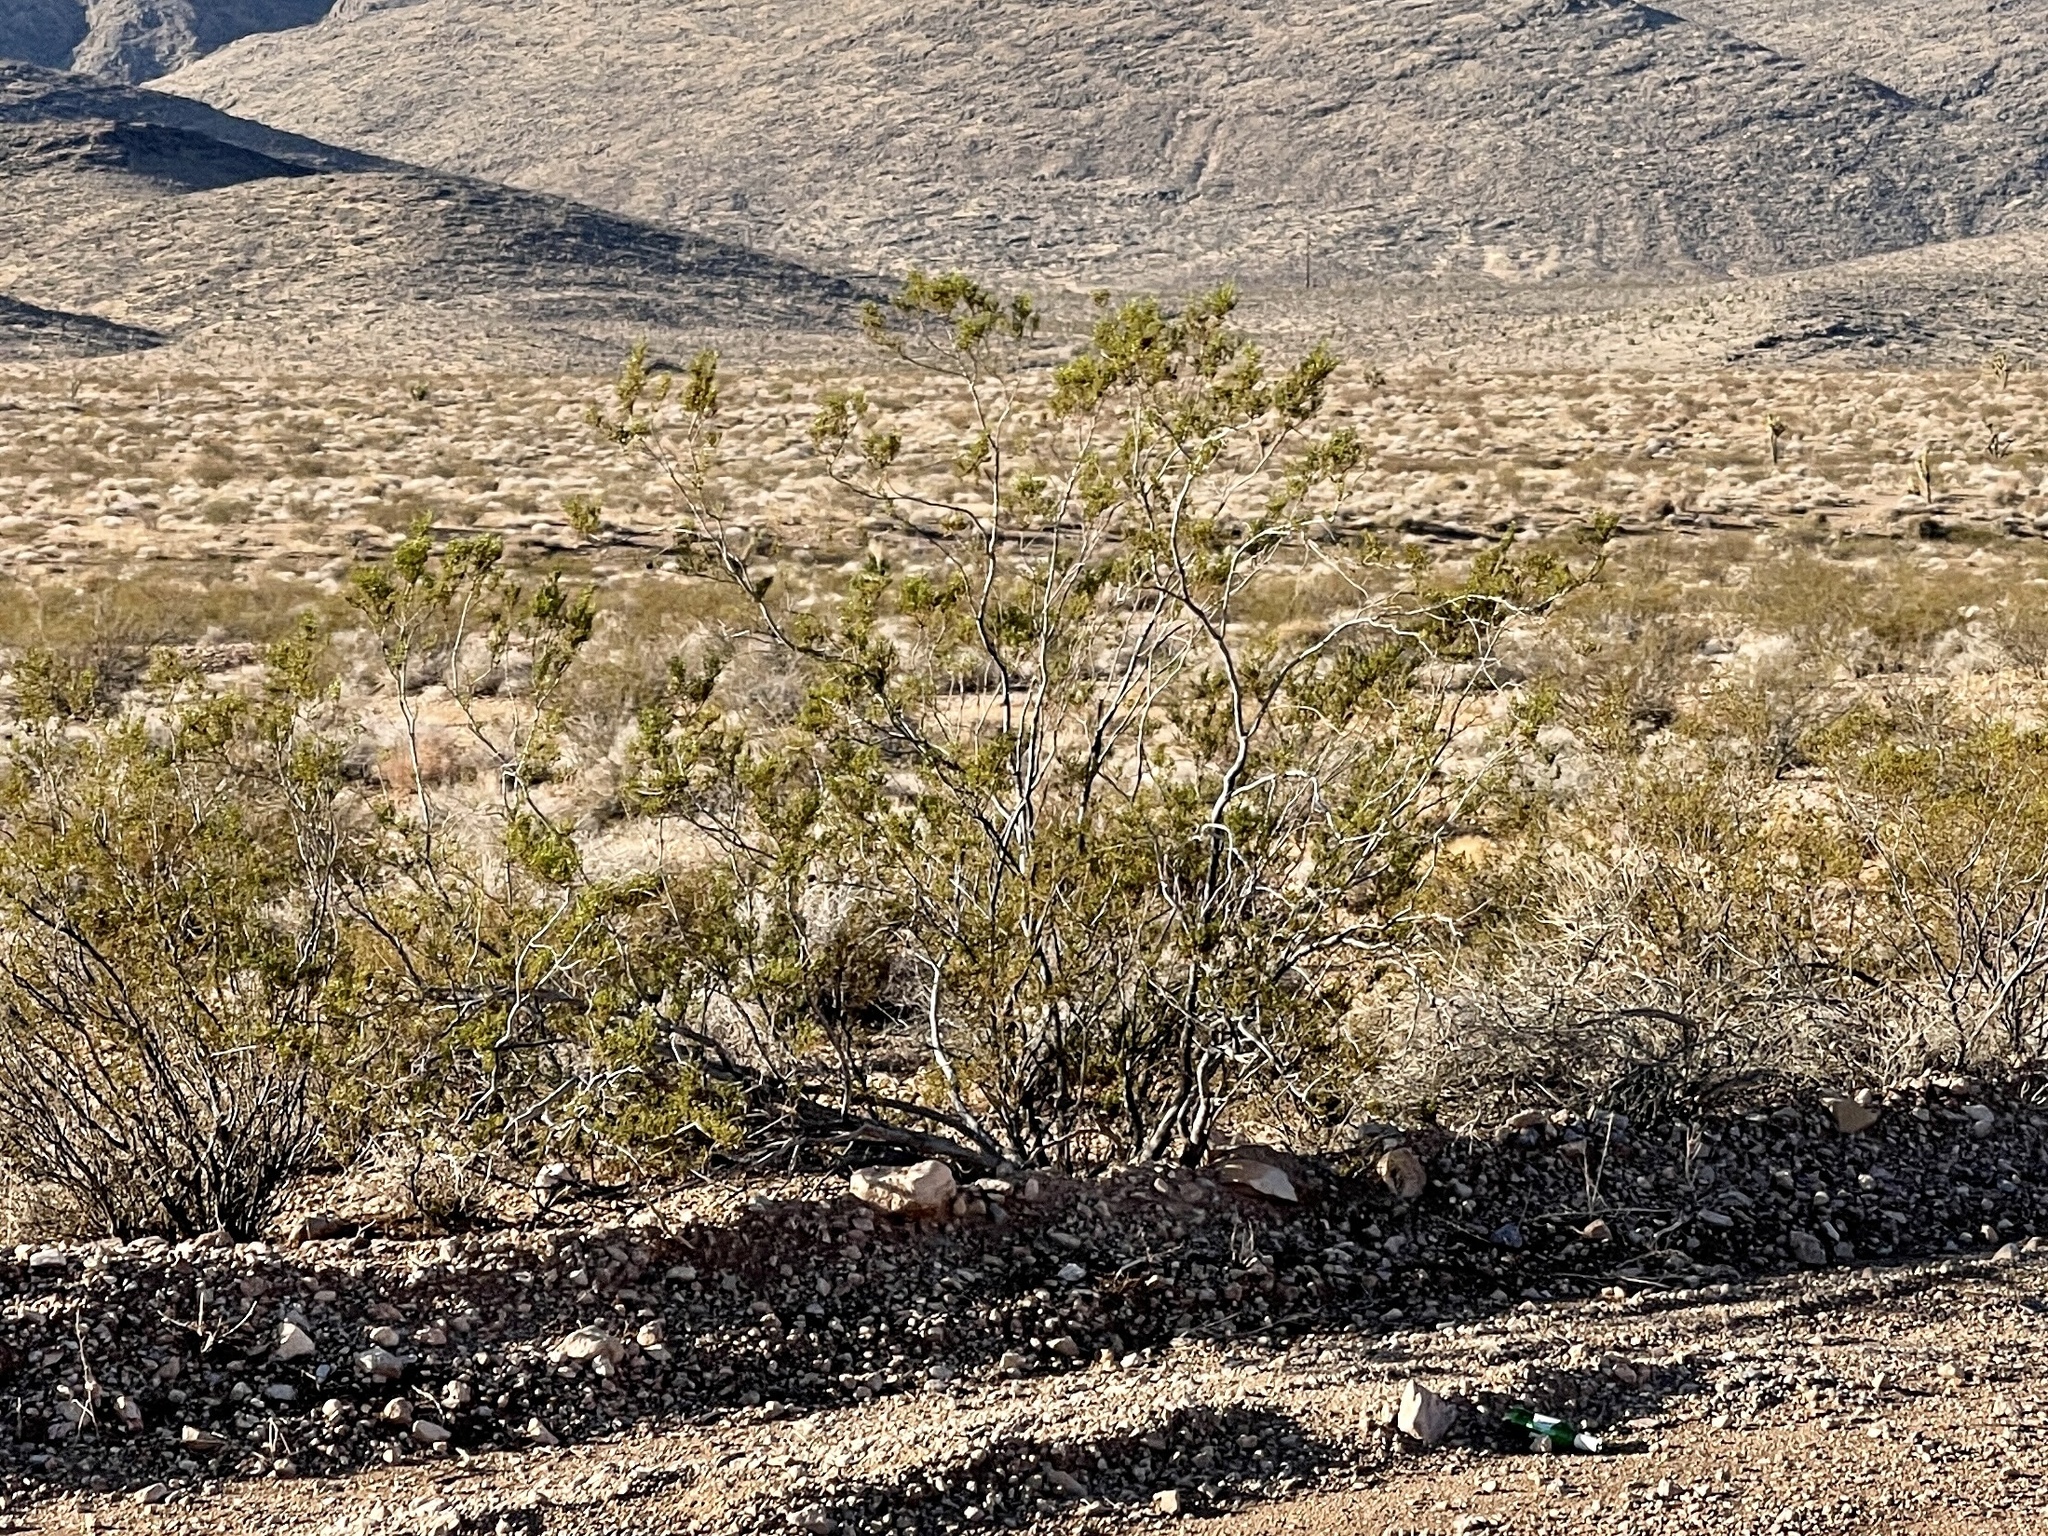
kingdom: Plantae
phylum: Tracheophyta
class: Magnoliopsida
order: Zygophyllales
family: Zygophyllaceae
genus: Larrea
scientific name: Larrea tridentata
